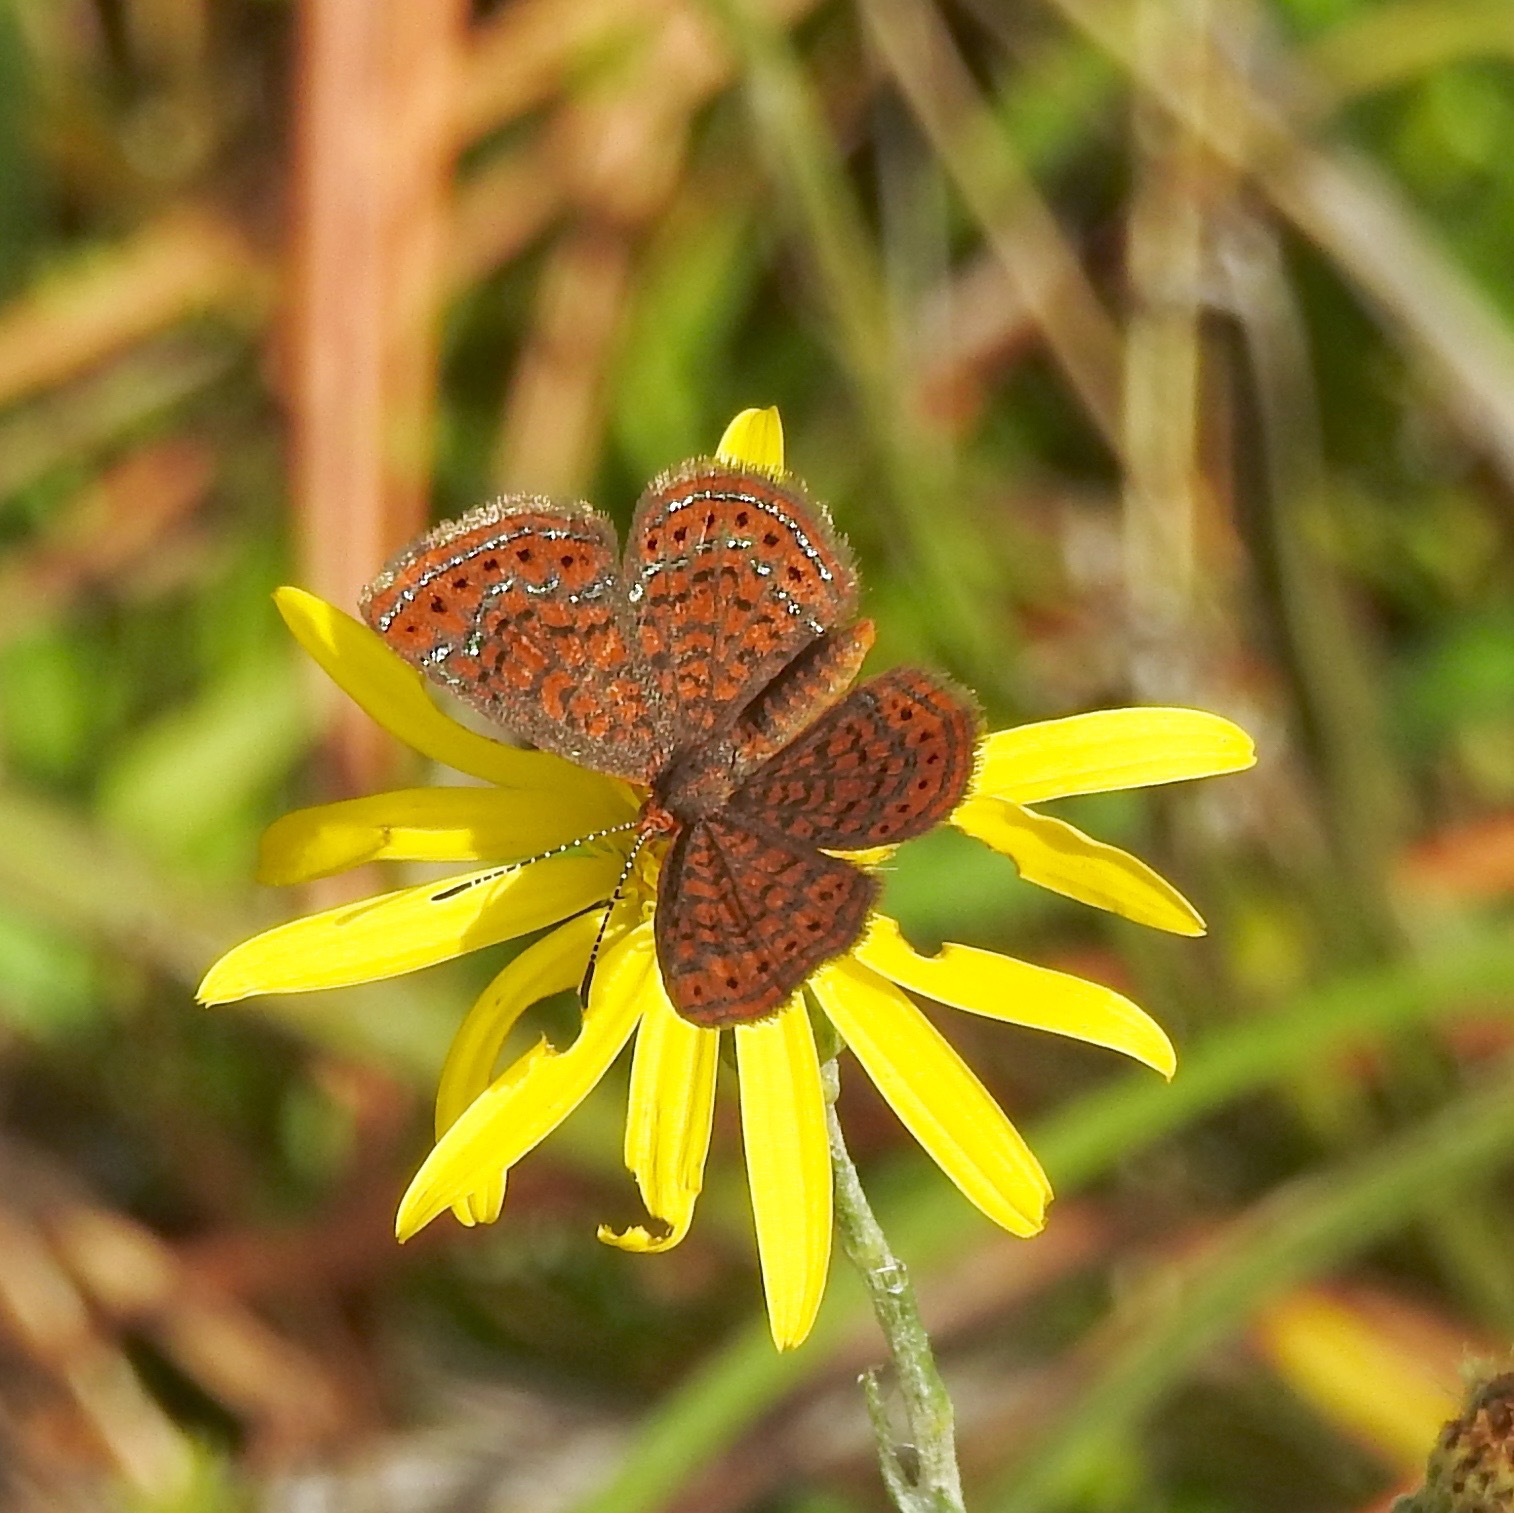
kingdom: Animalia
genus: Calephelis
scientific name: Calephelis virginiensis
